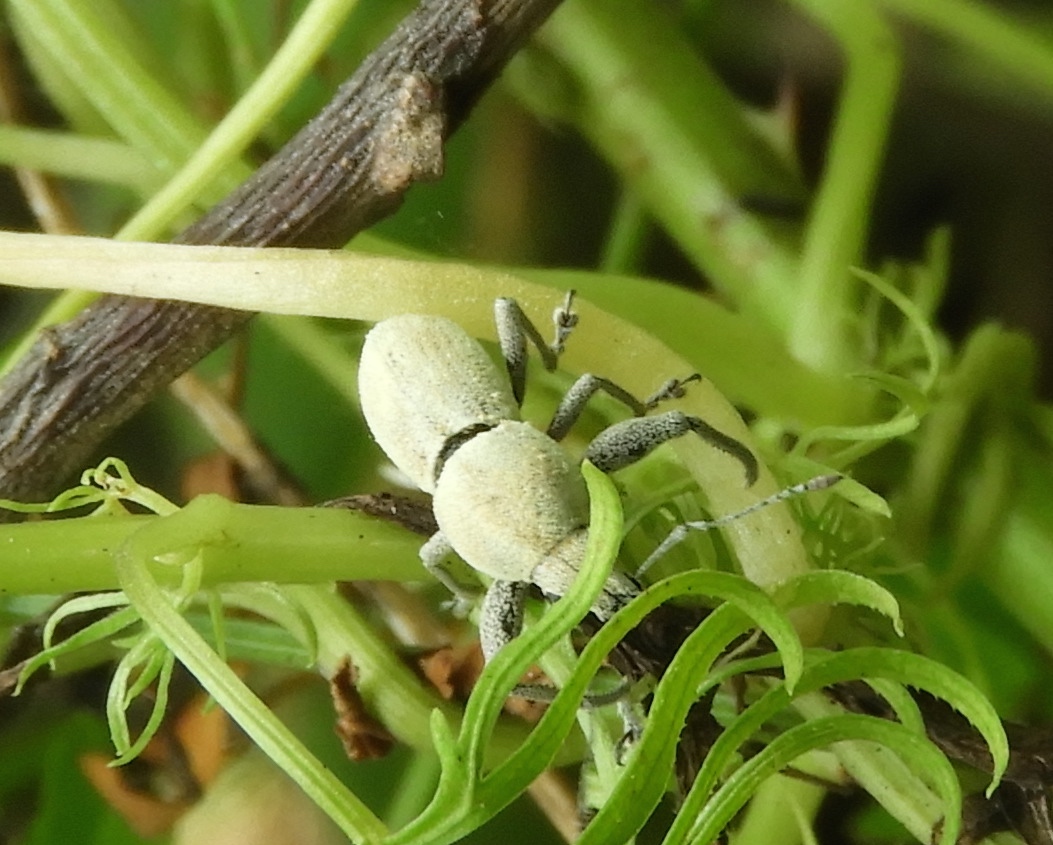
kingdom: Animalia
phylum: Arthropoda
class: Insecta
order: Coleoptera
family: Curculionidae
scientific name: Curculionidae
